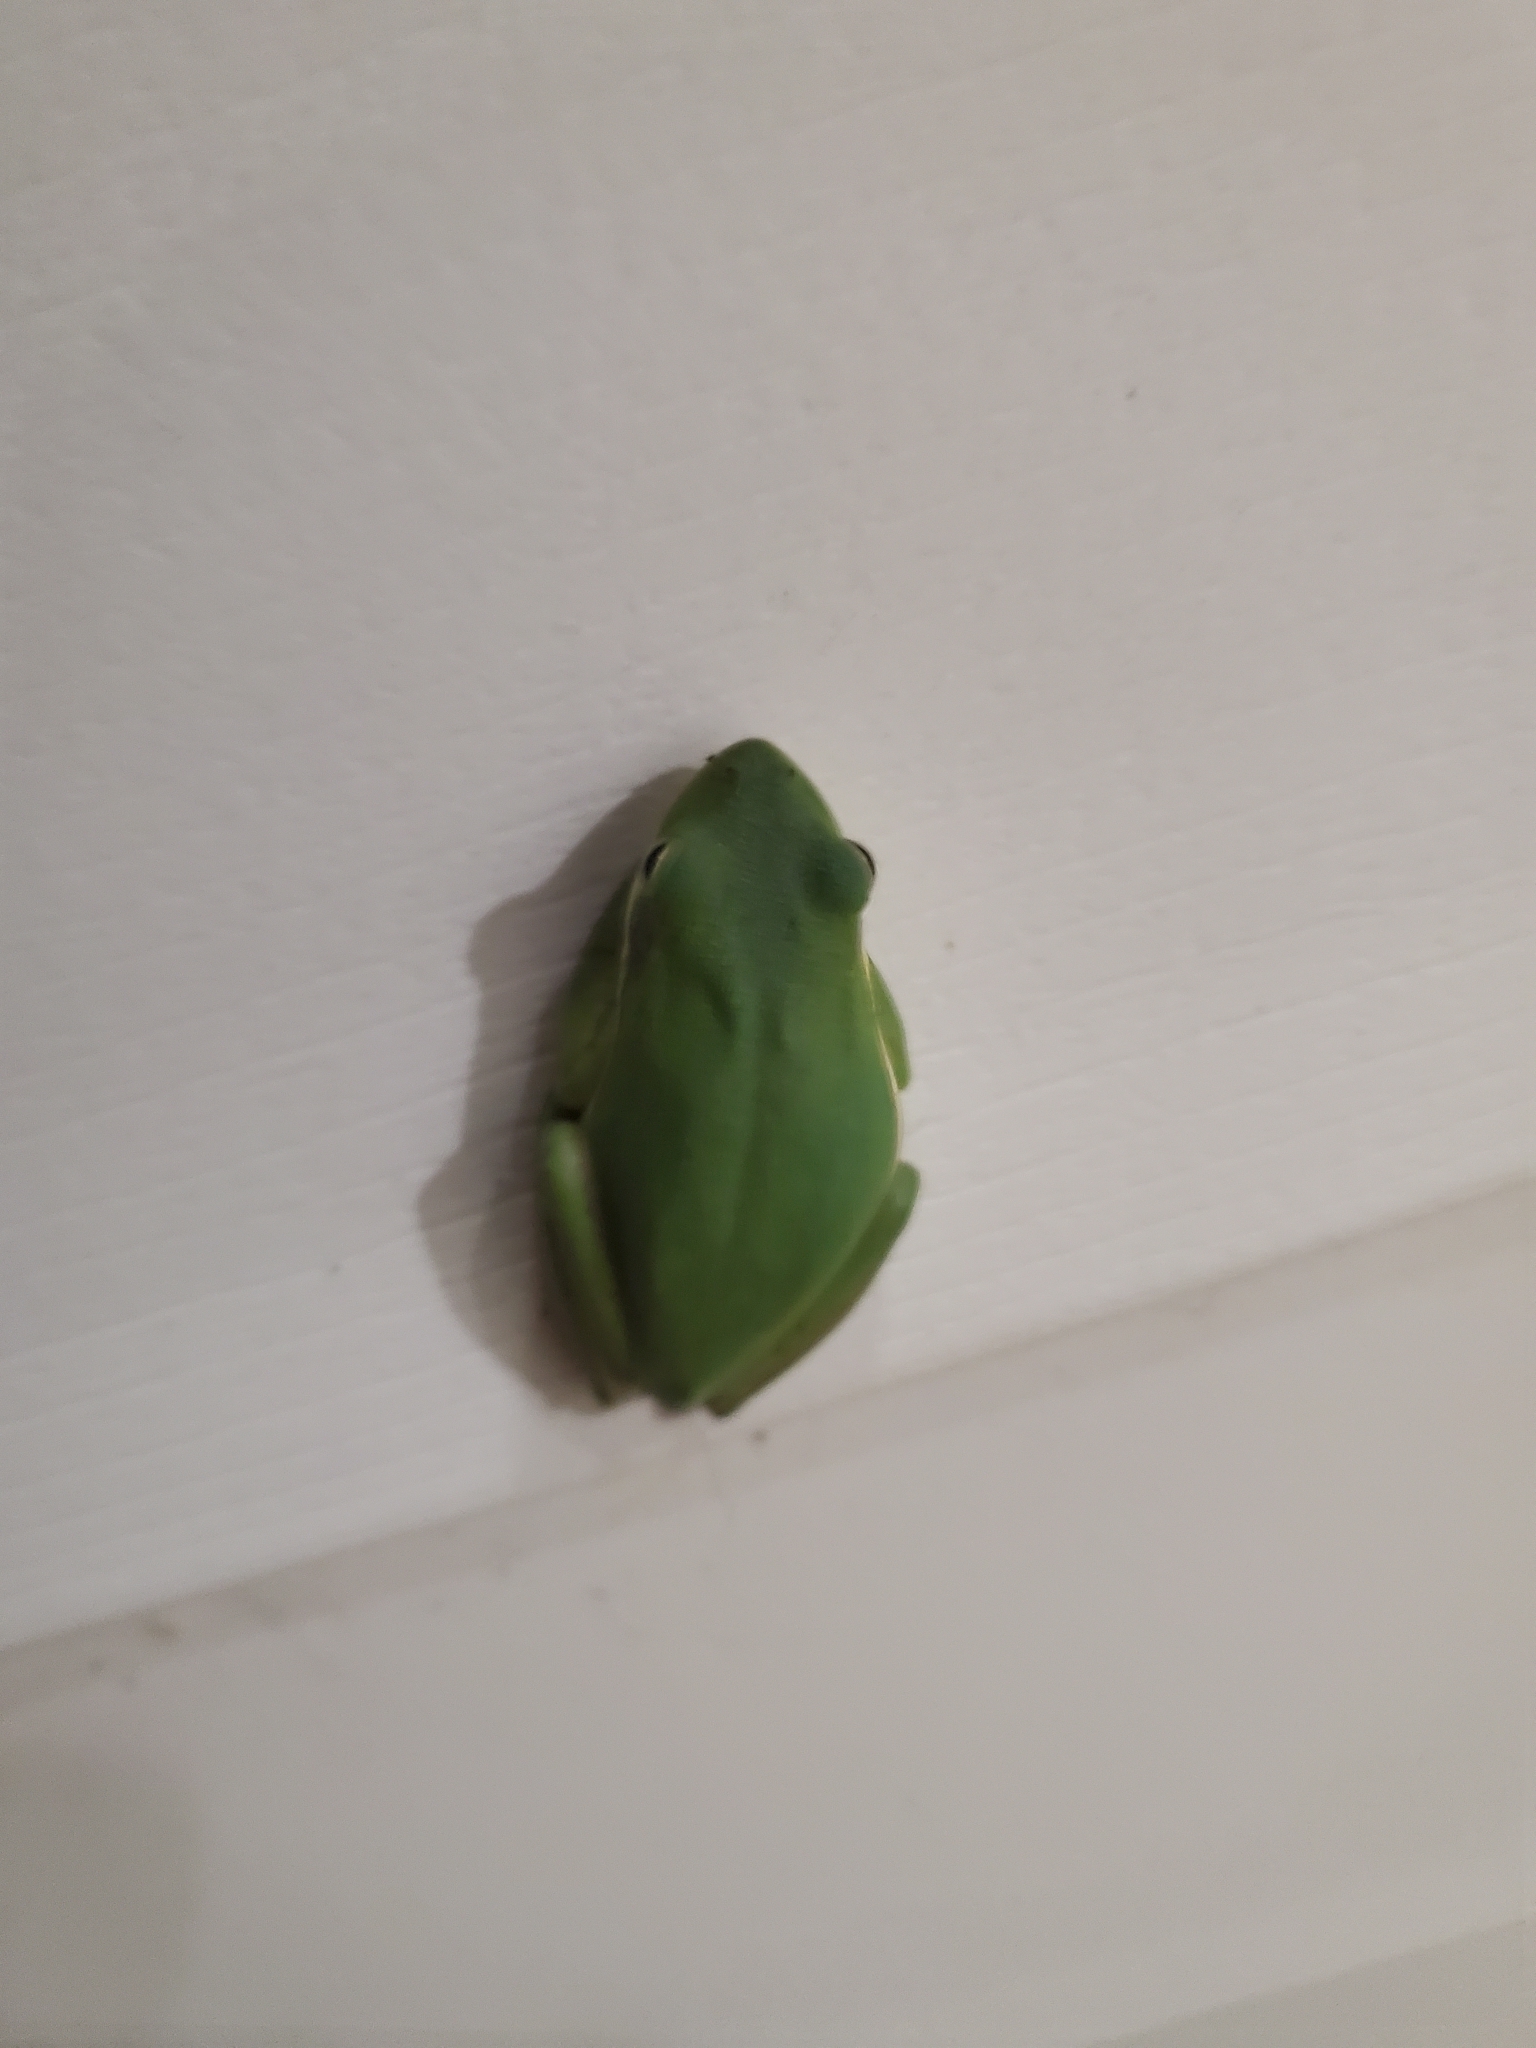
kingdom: Animalia
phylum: Chordata
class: Amphibia
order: Anura
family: Hylidae
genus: Dryophytes
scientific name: Dryophytes cinereus
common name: Green treefrog
